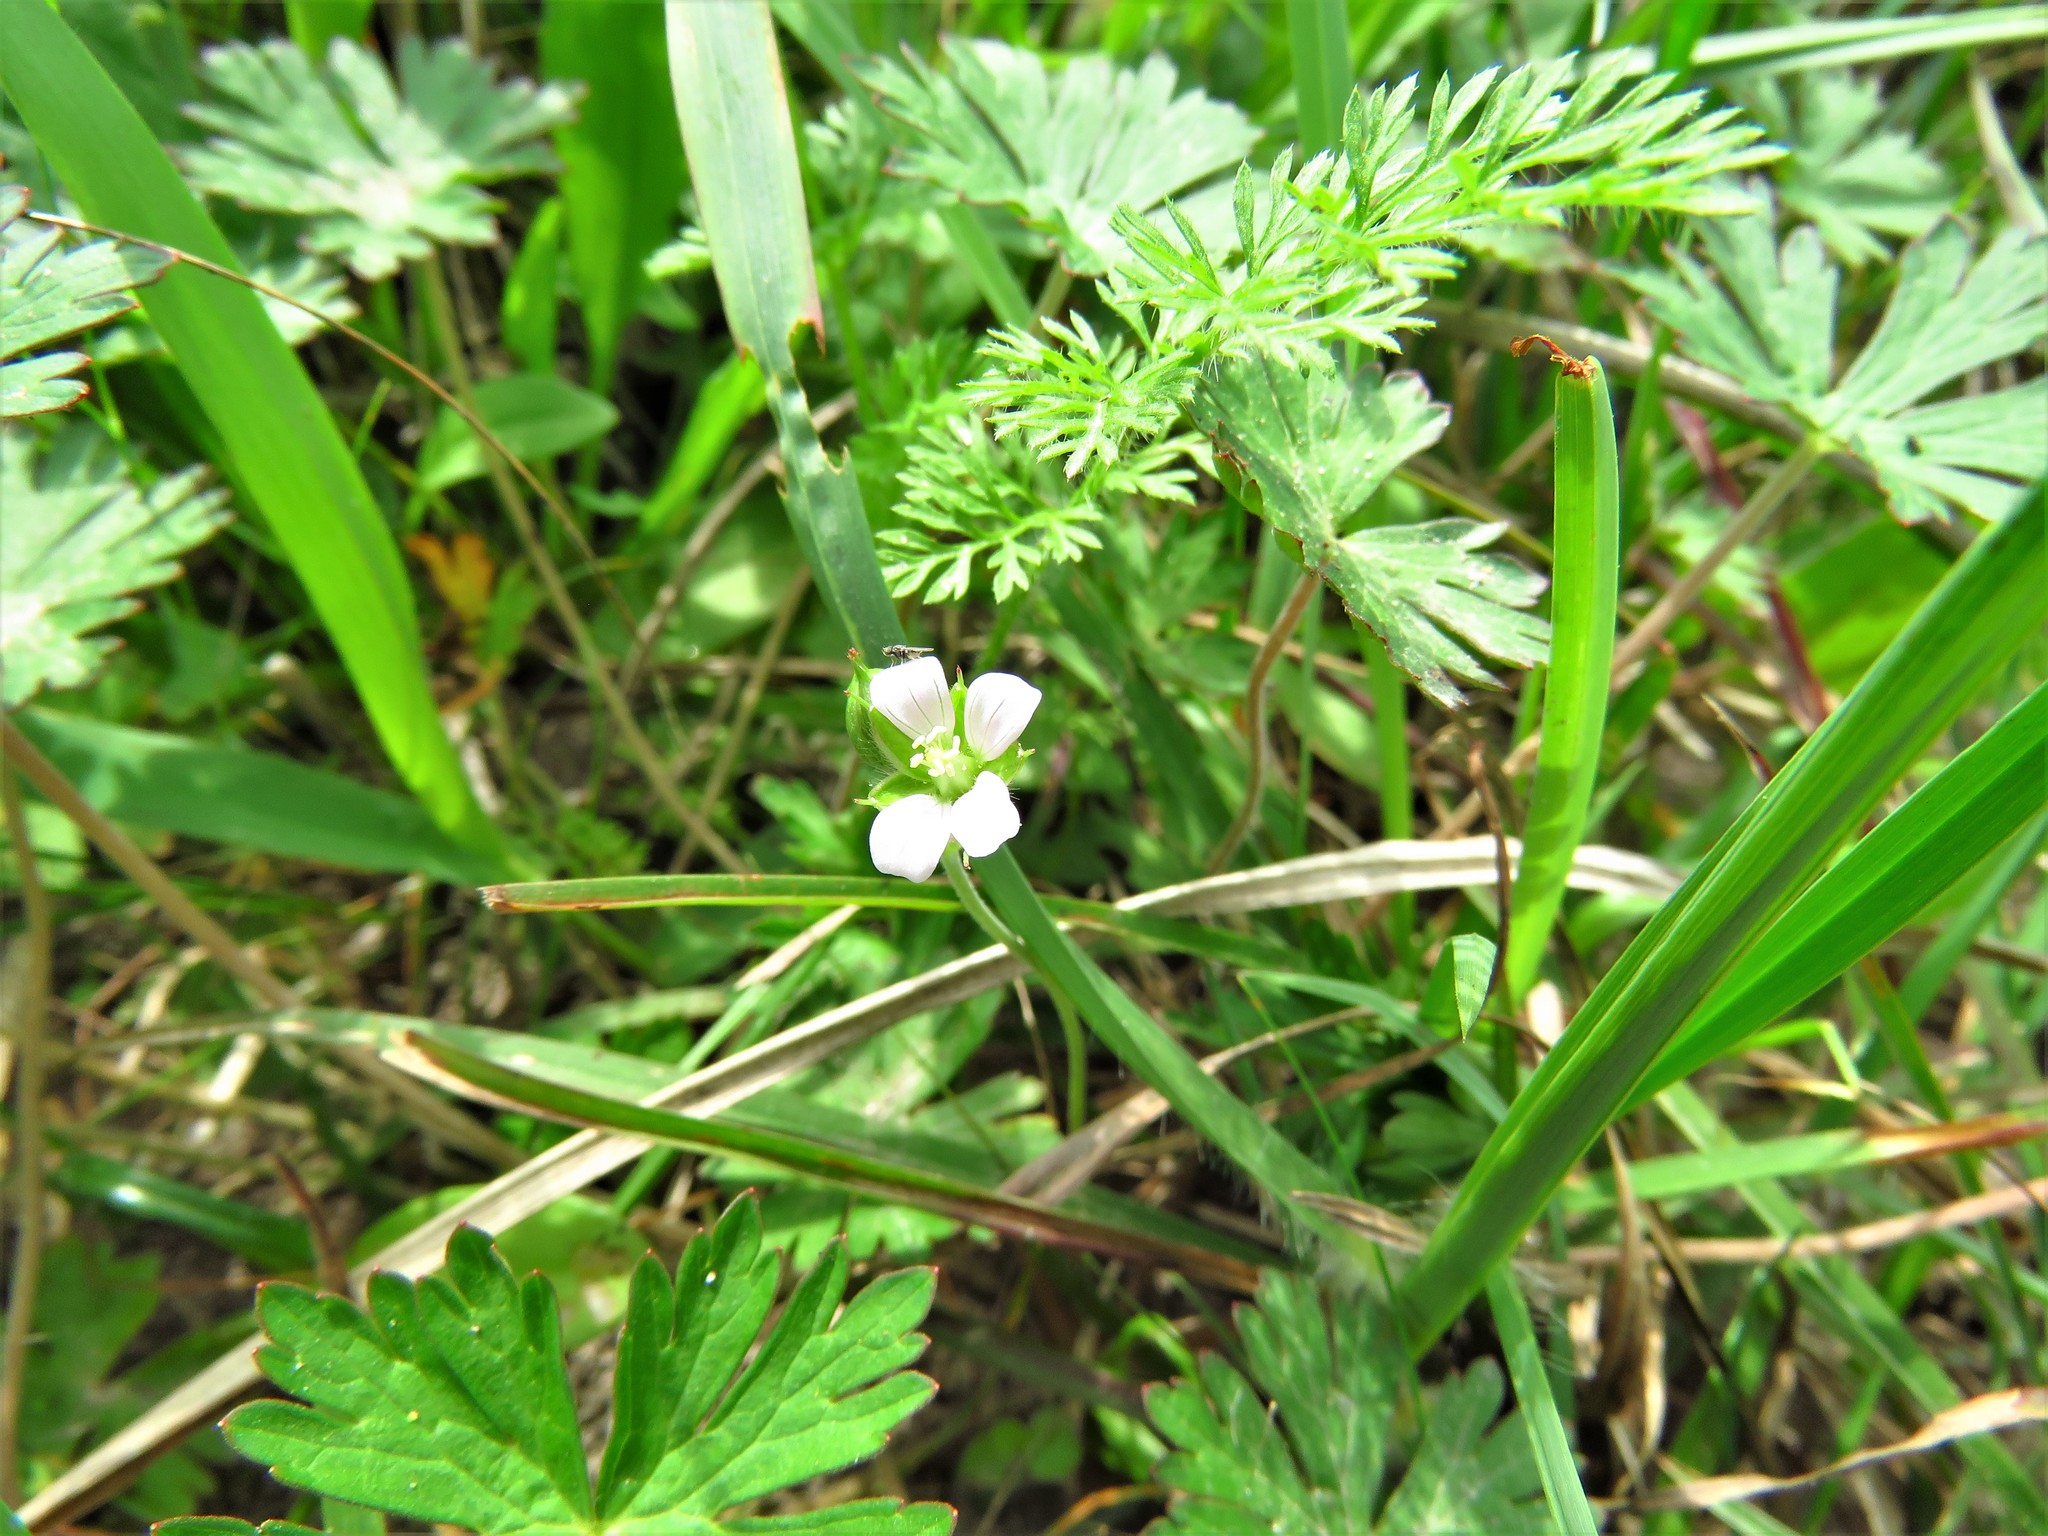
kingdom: Plantae
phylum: Tracheophyta
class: Magnoliopsida
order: Geraniales
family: Geraniaceae
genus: Geranium
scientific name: Geranium carolinianum
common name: Carolina crane's-bill
